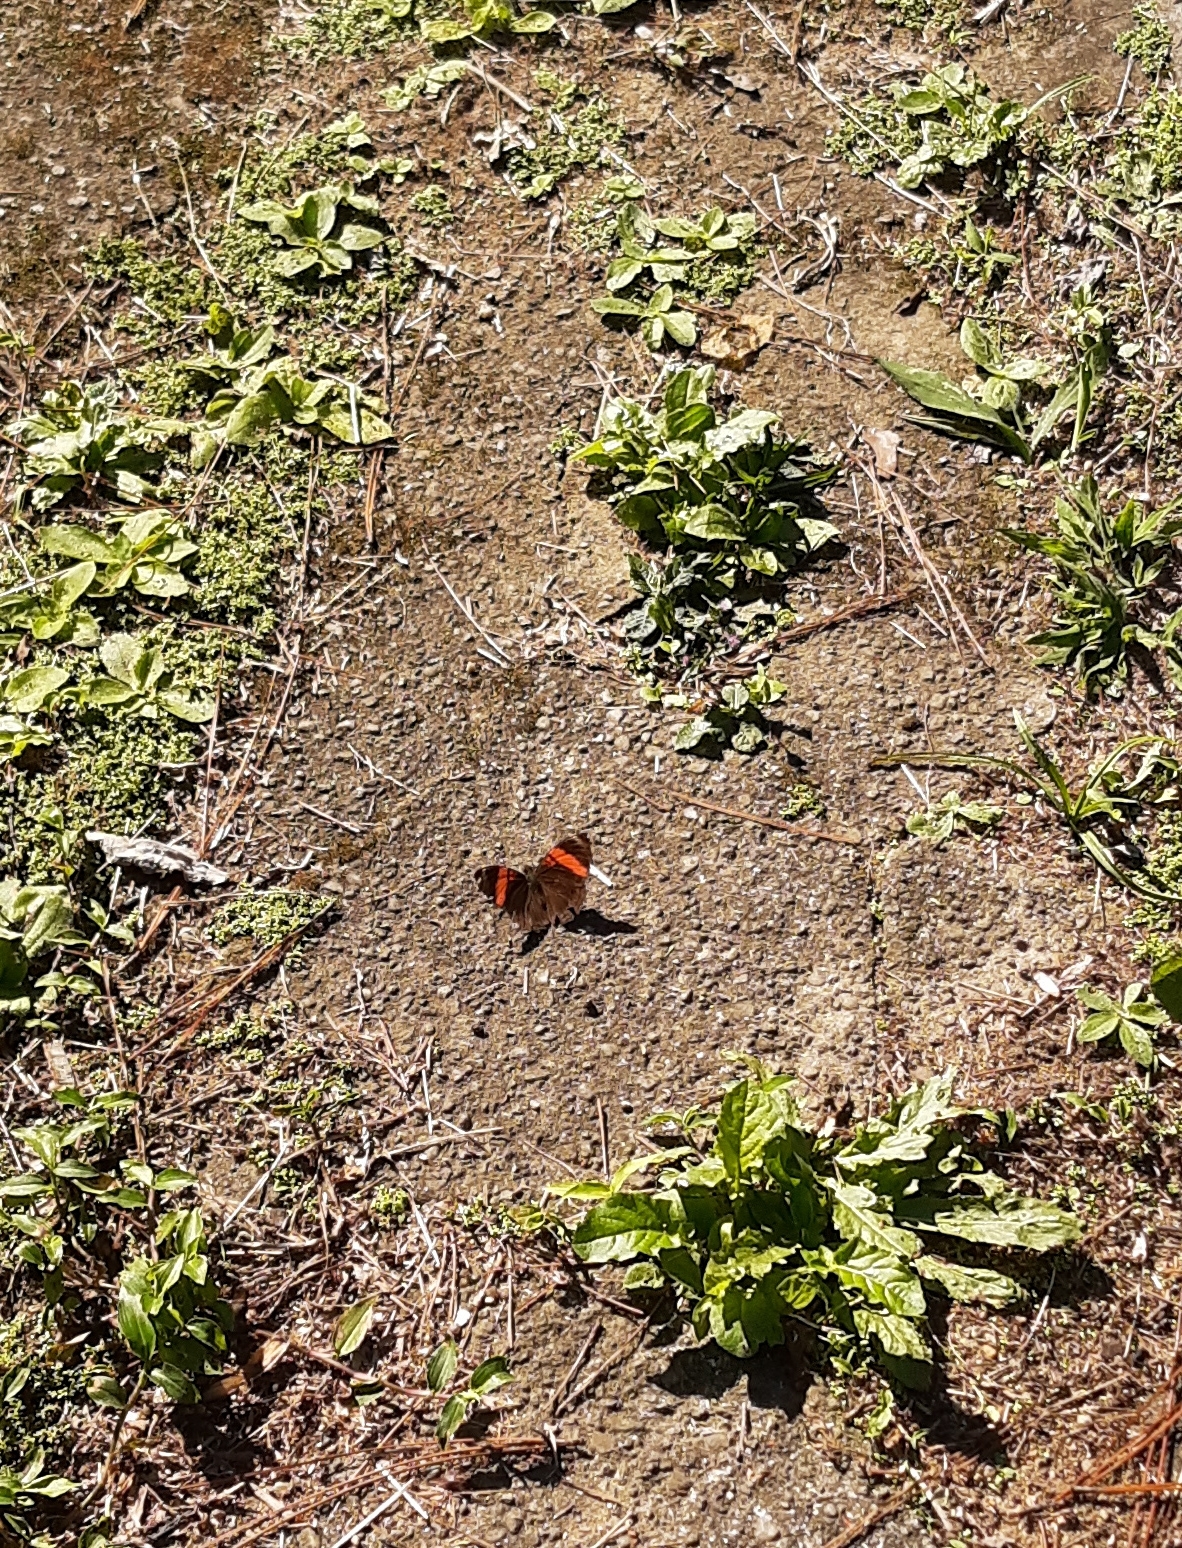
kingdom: Animalia
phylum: Arthropoda
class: Insecta
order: Lepidoptera
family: Nymphalidae
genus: Limenitis
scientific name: Limenitis isis
